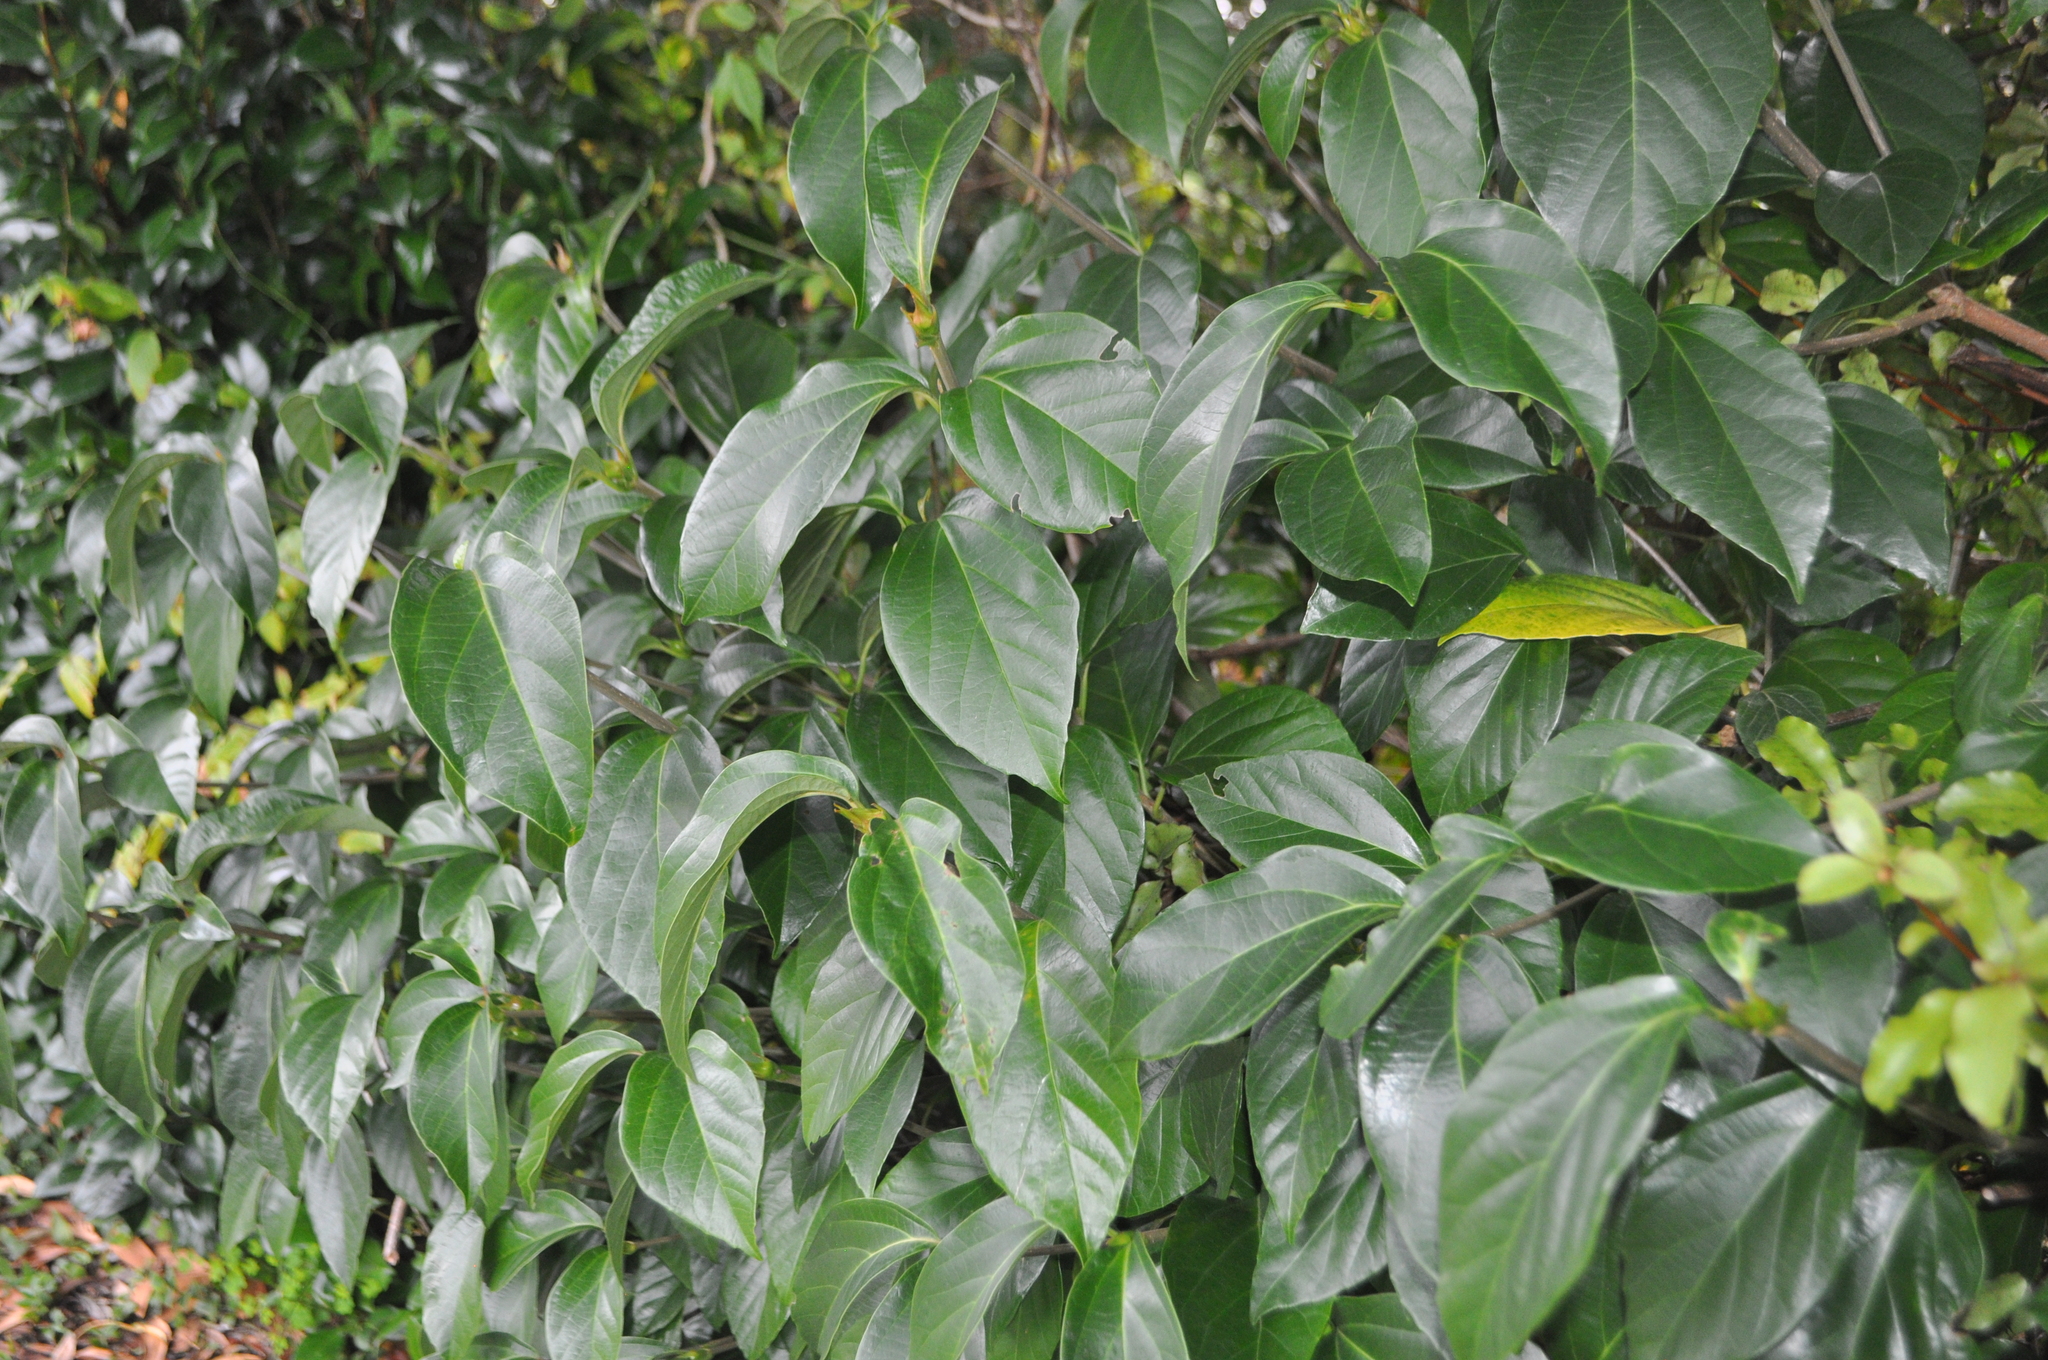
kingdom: Plantae
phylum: Tracheophyta
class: Magnoliopsida
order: Malvales
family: Malvaceae
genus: Hoheria
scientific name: Hoheria populnea
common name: Lacebark
